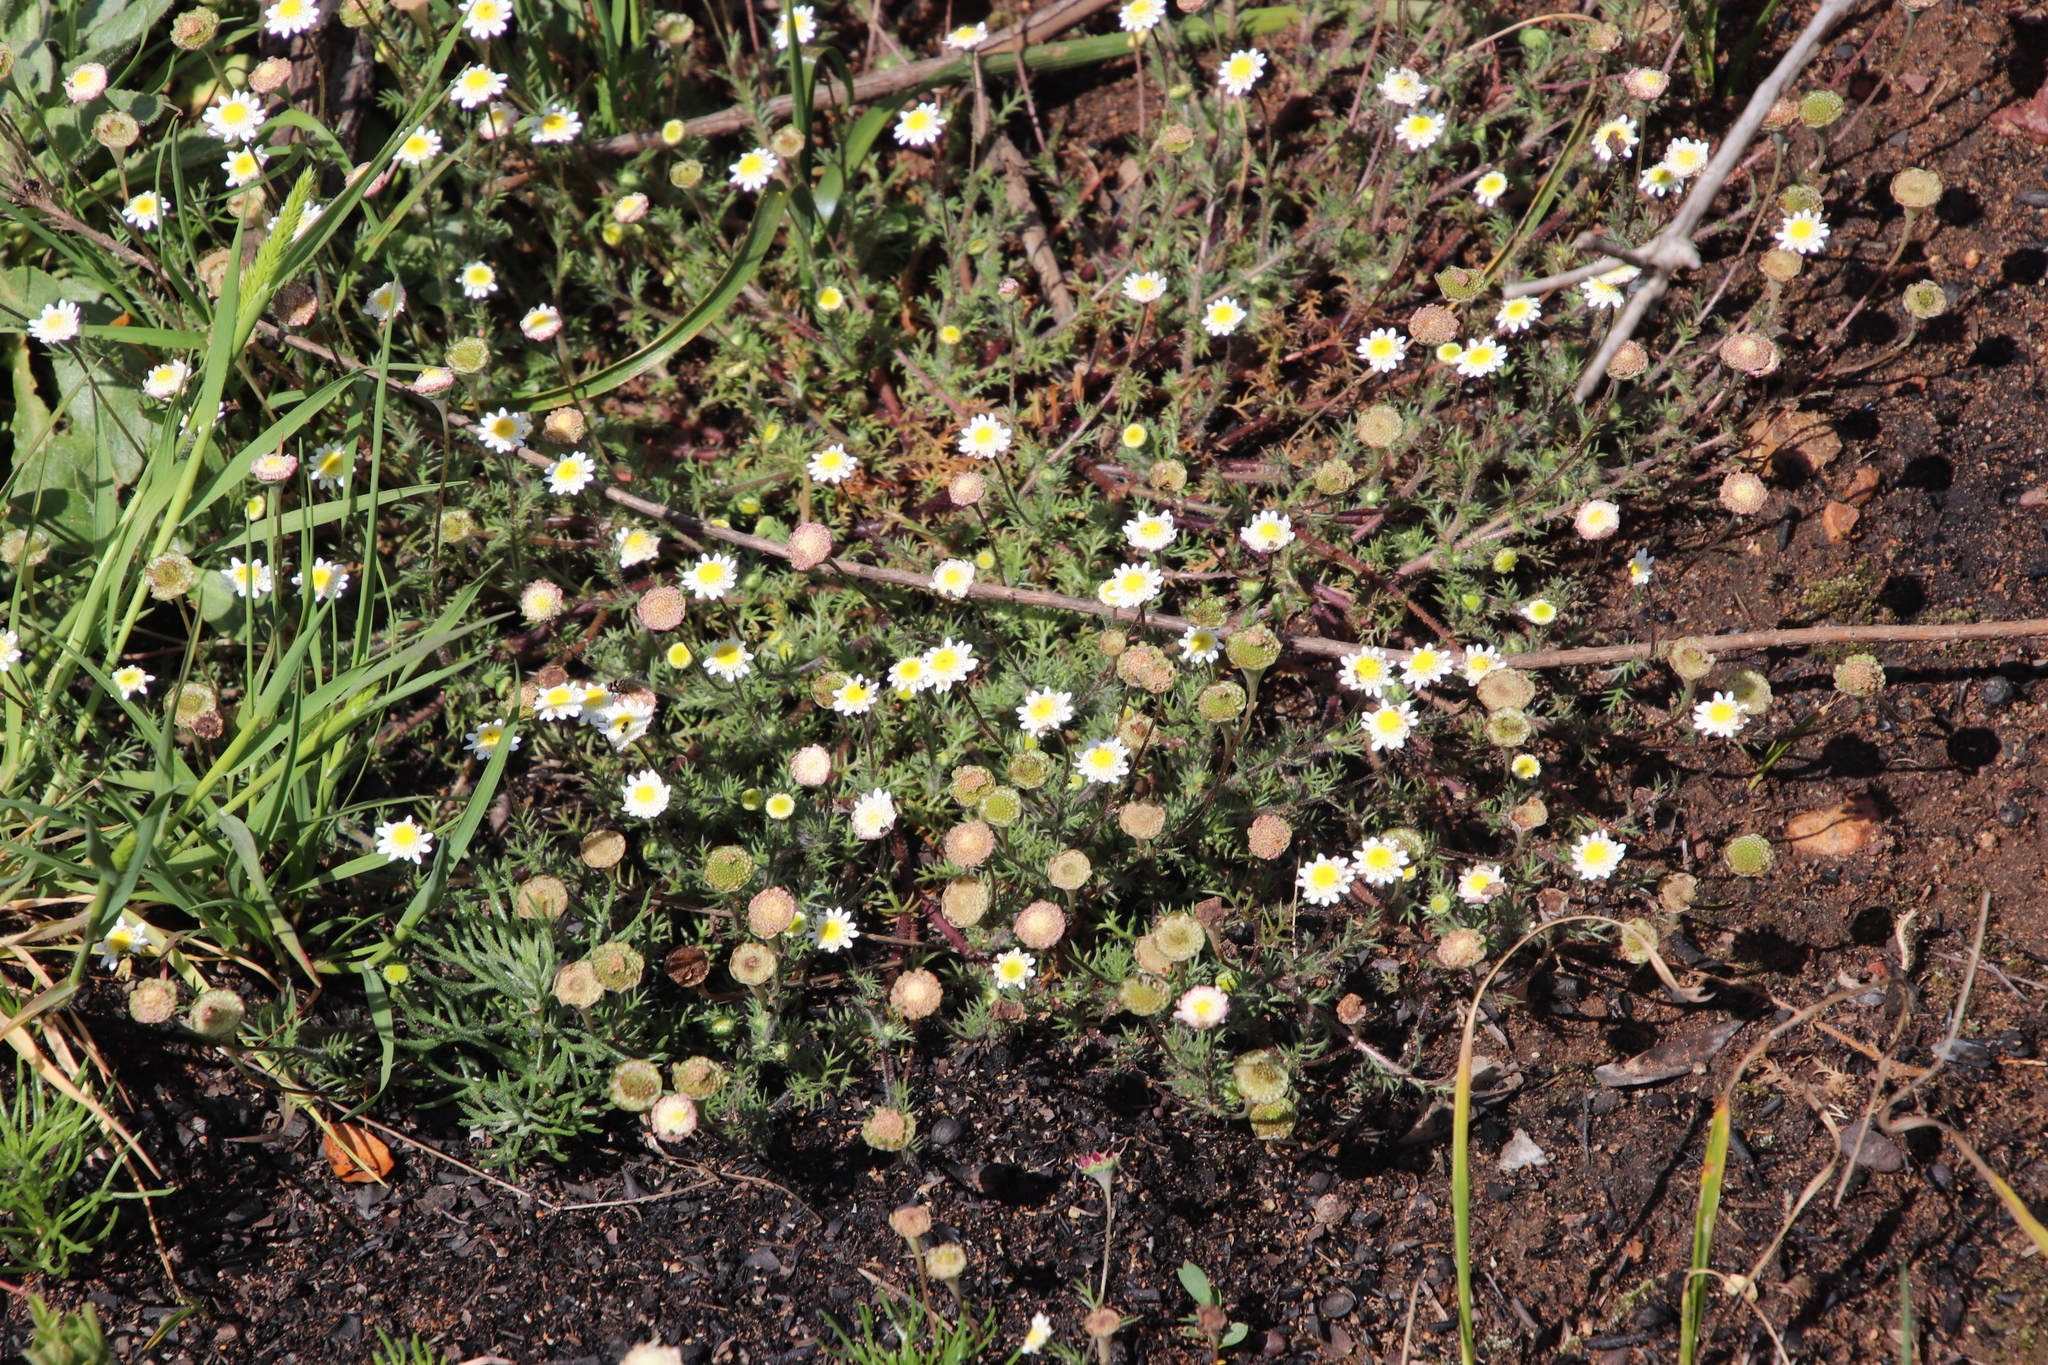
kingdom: Plantae
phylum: Tracheophyta
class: Magnoliopsida
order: Asterales
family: Asteraceae
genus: Cotula
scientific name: Cotula turbinata
